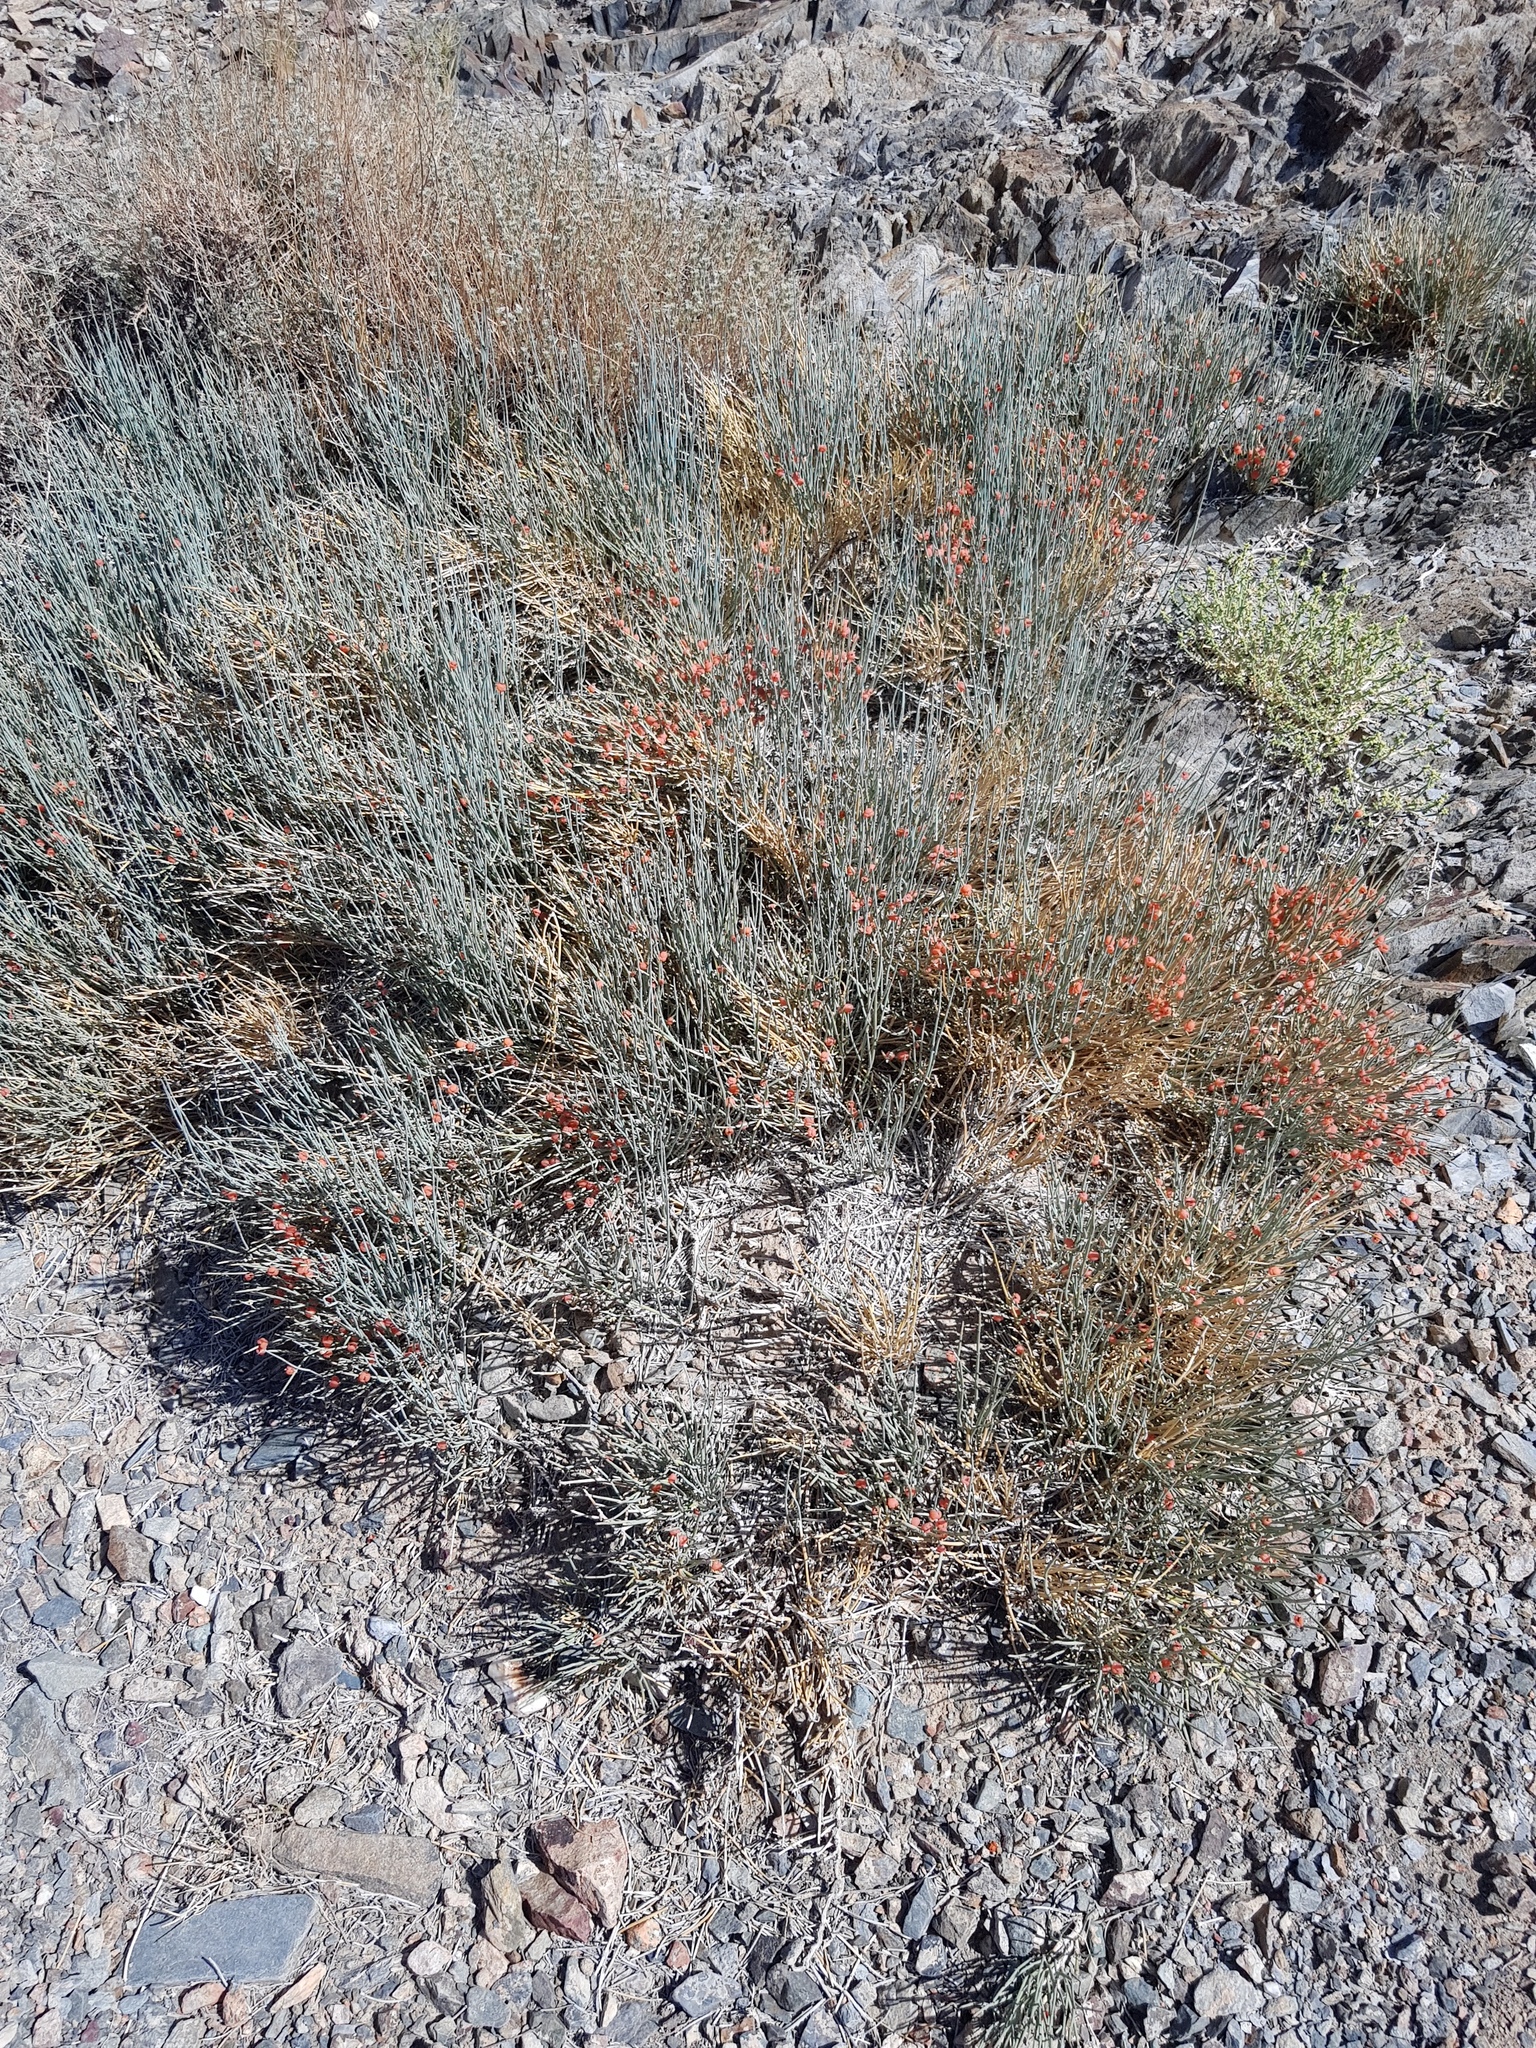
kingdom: Plantae
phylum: Tracheophyta
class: Gnetopsida
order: Ephedrales
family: Ephedraceae
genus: Ephedra
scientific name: Ephedra equisetina
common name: Mongolian ephedra
